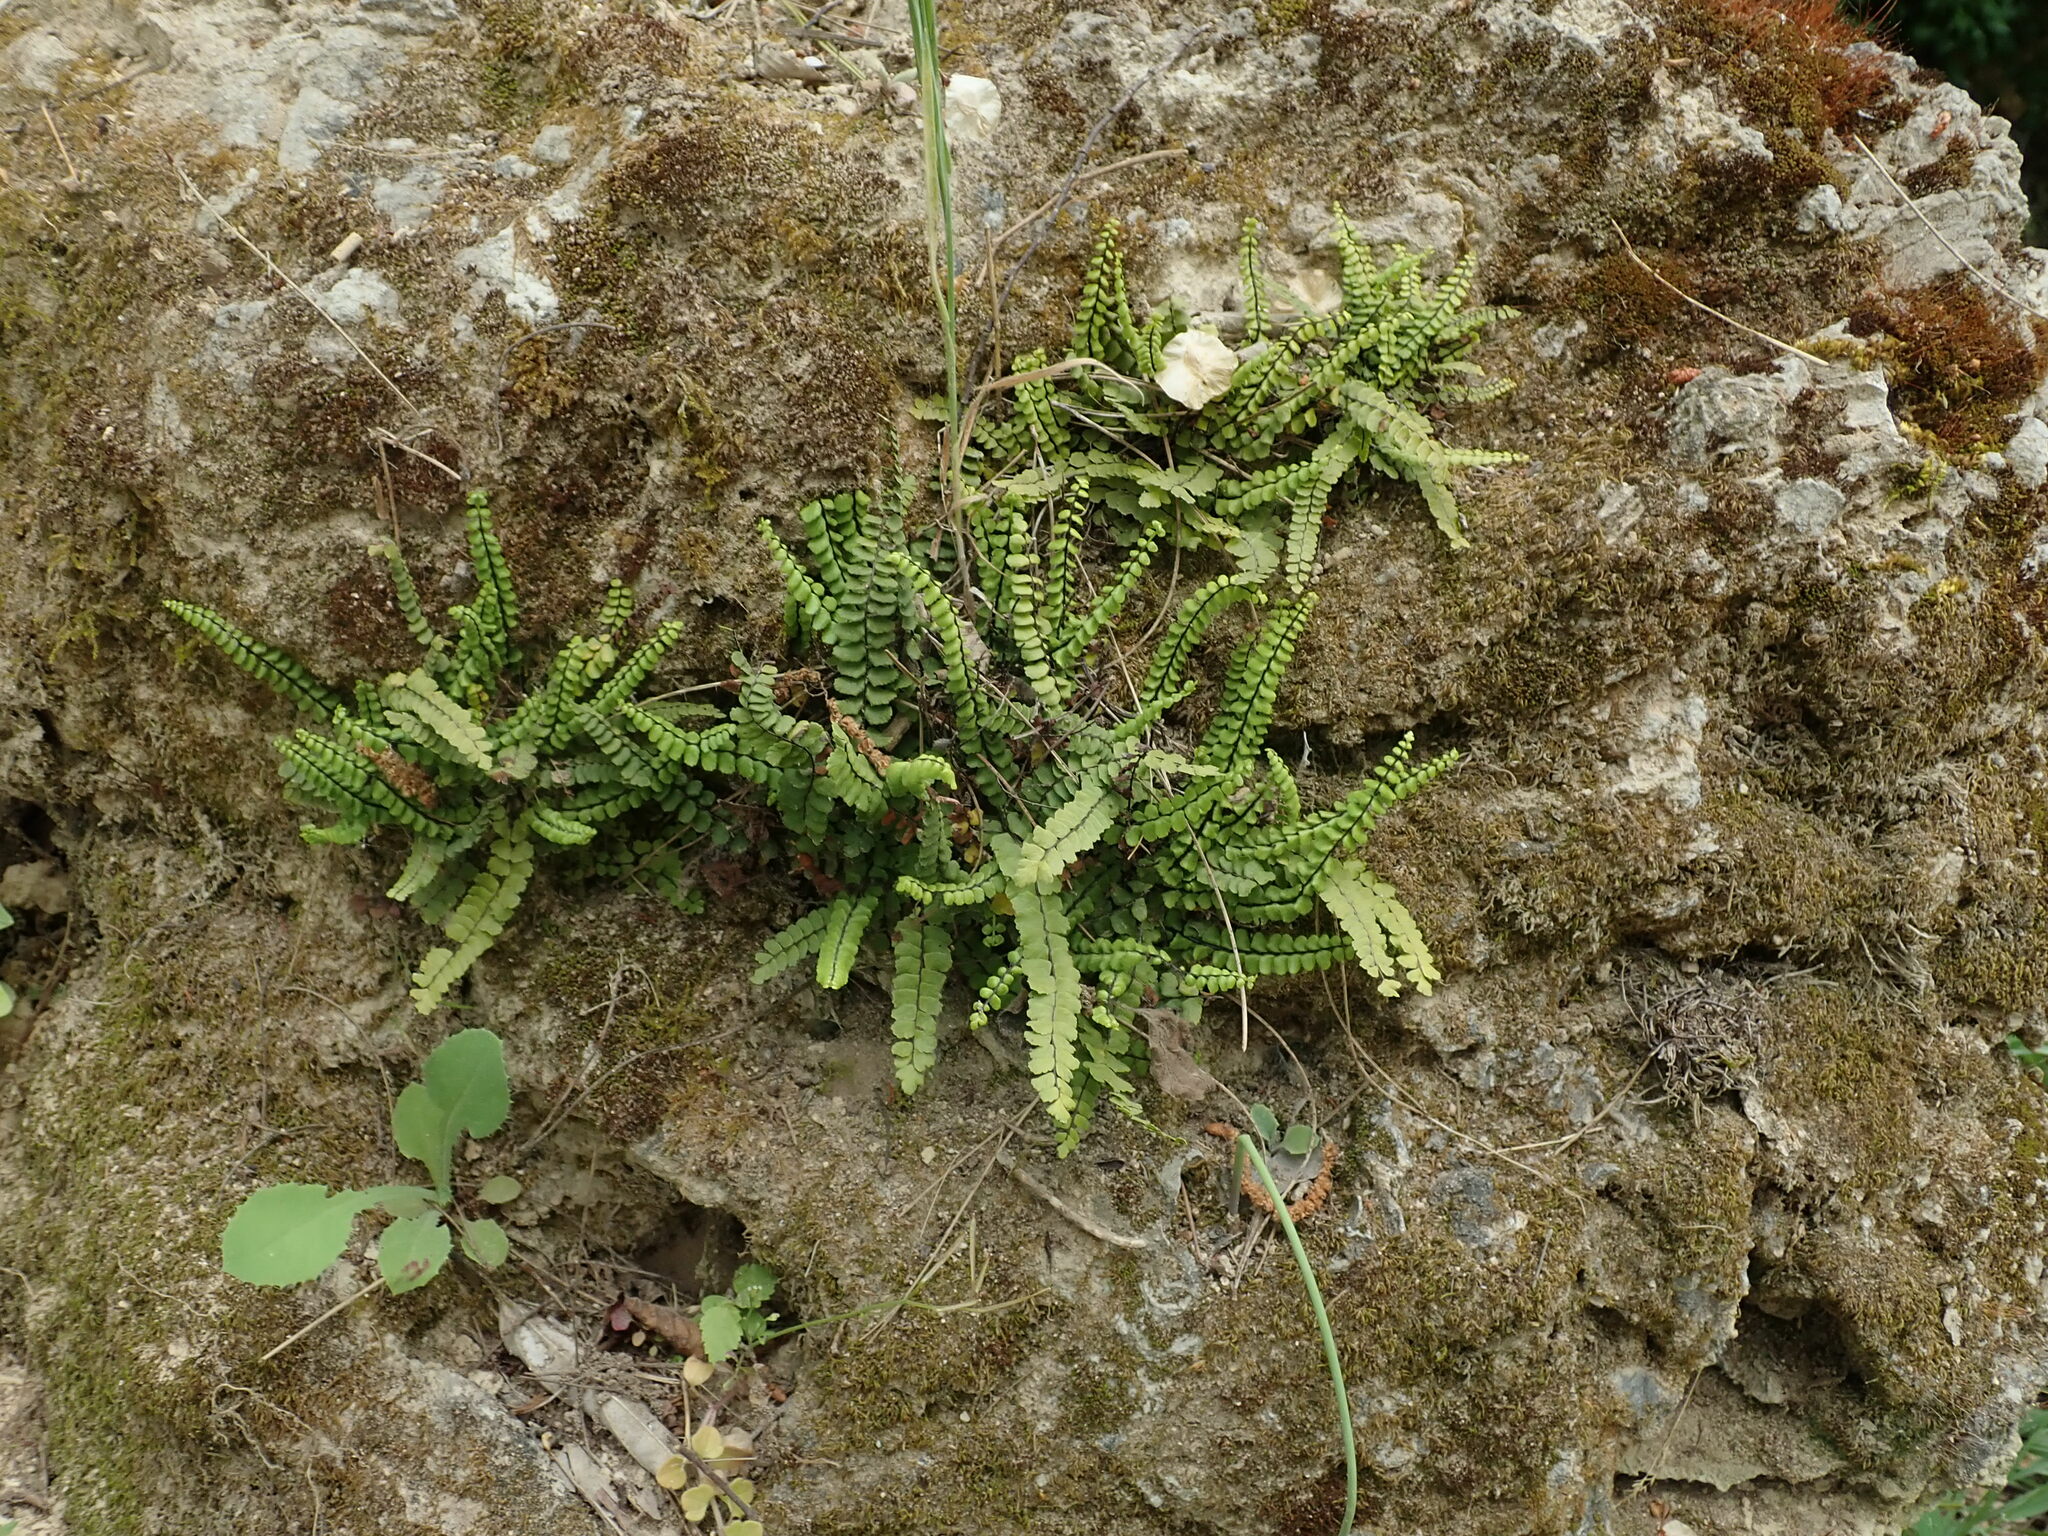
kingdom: Plantae
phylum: Tracheophyta
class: Polypodiopsida
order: Polypodiales
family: Aspleniaceae
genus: Asplenium
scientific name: Asplenium trichomanes
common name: Maidenhair spleenwort
